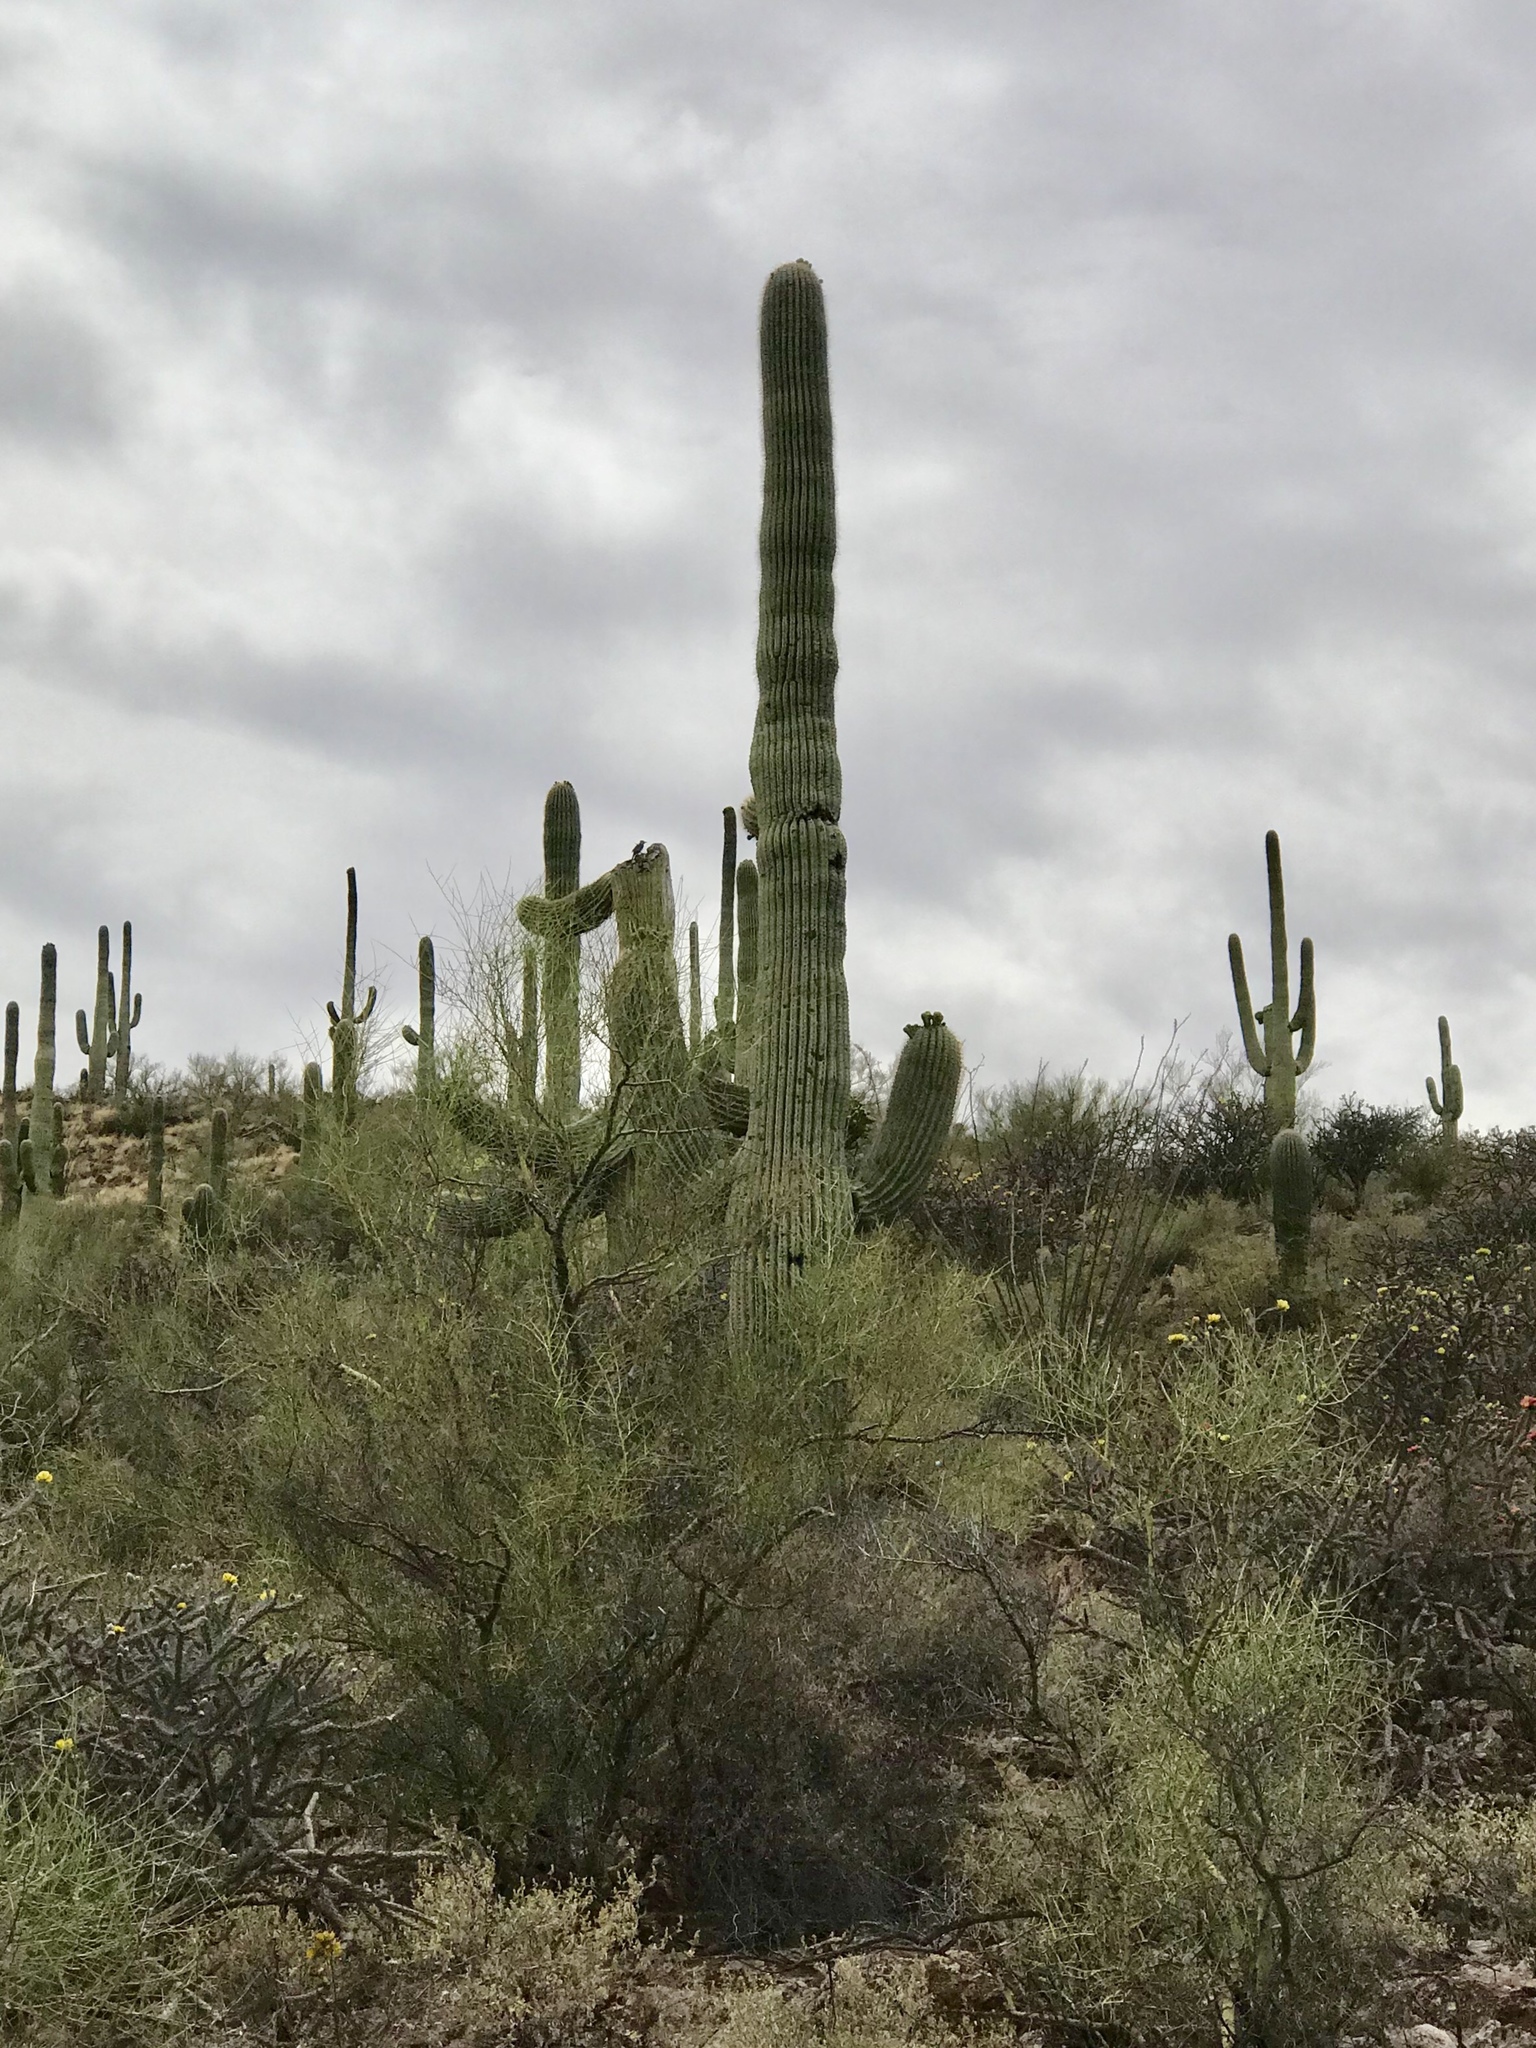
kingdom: Plantae
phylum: Tracheophyta
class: Magnoliopsida
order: Caryophyllales
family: Cactaceae
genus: Carnegiea
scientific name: Carnegiea gigantea
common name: Saguaro
